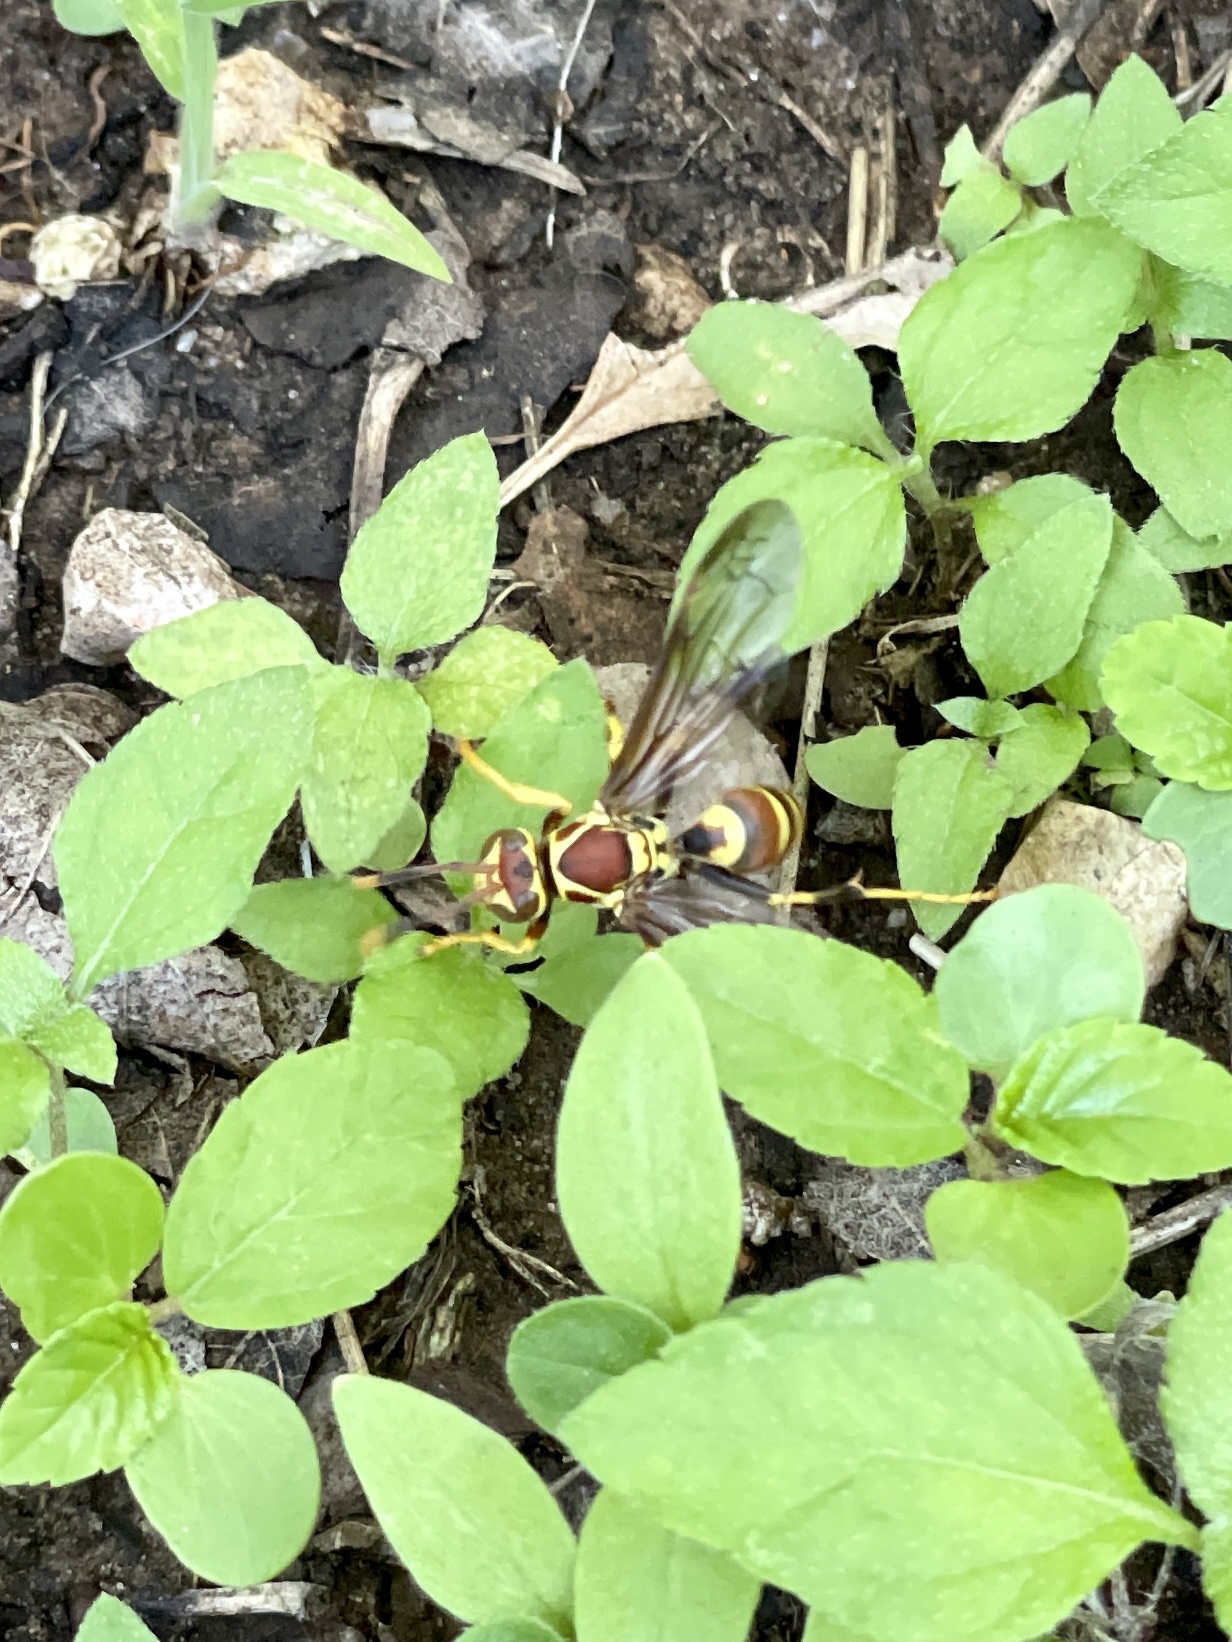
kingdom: Animalia
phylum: Arthropoda
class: Insecta
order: Hymenoptera
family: Eumenidae
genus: Polistes
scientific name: Polistes exclamans
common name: Paper wasp
